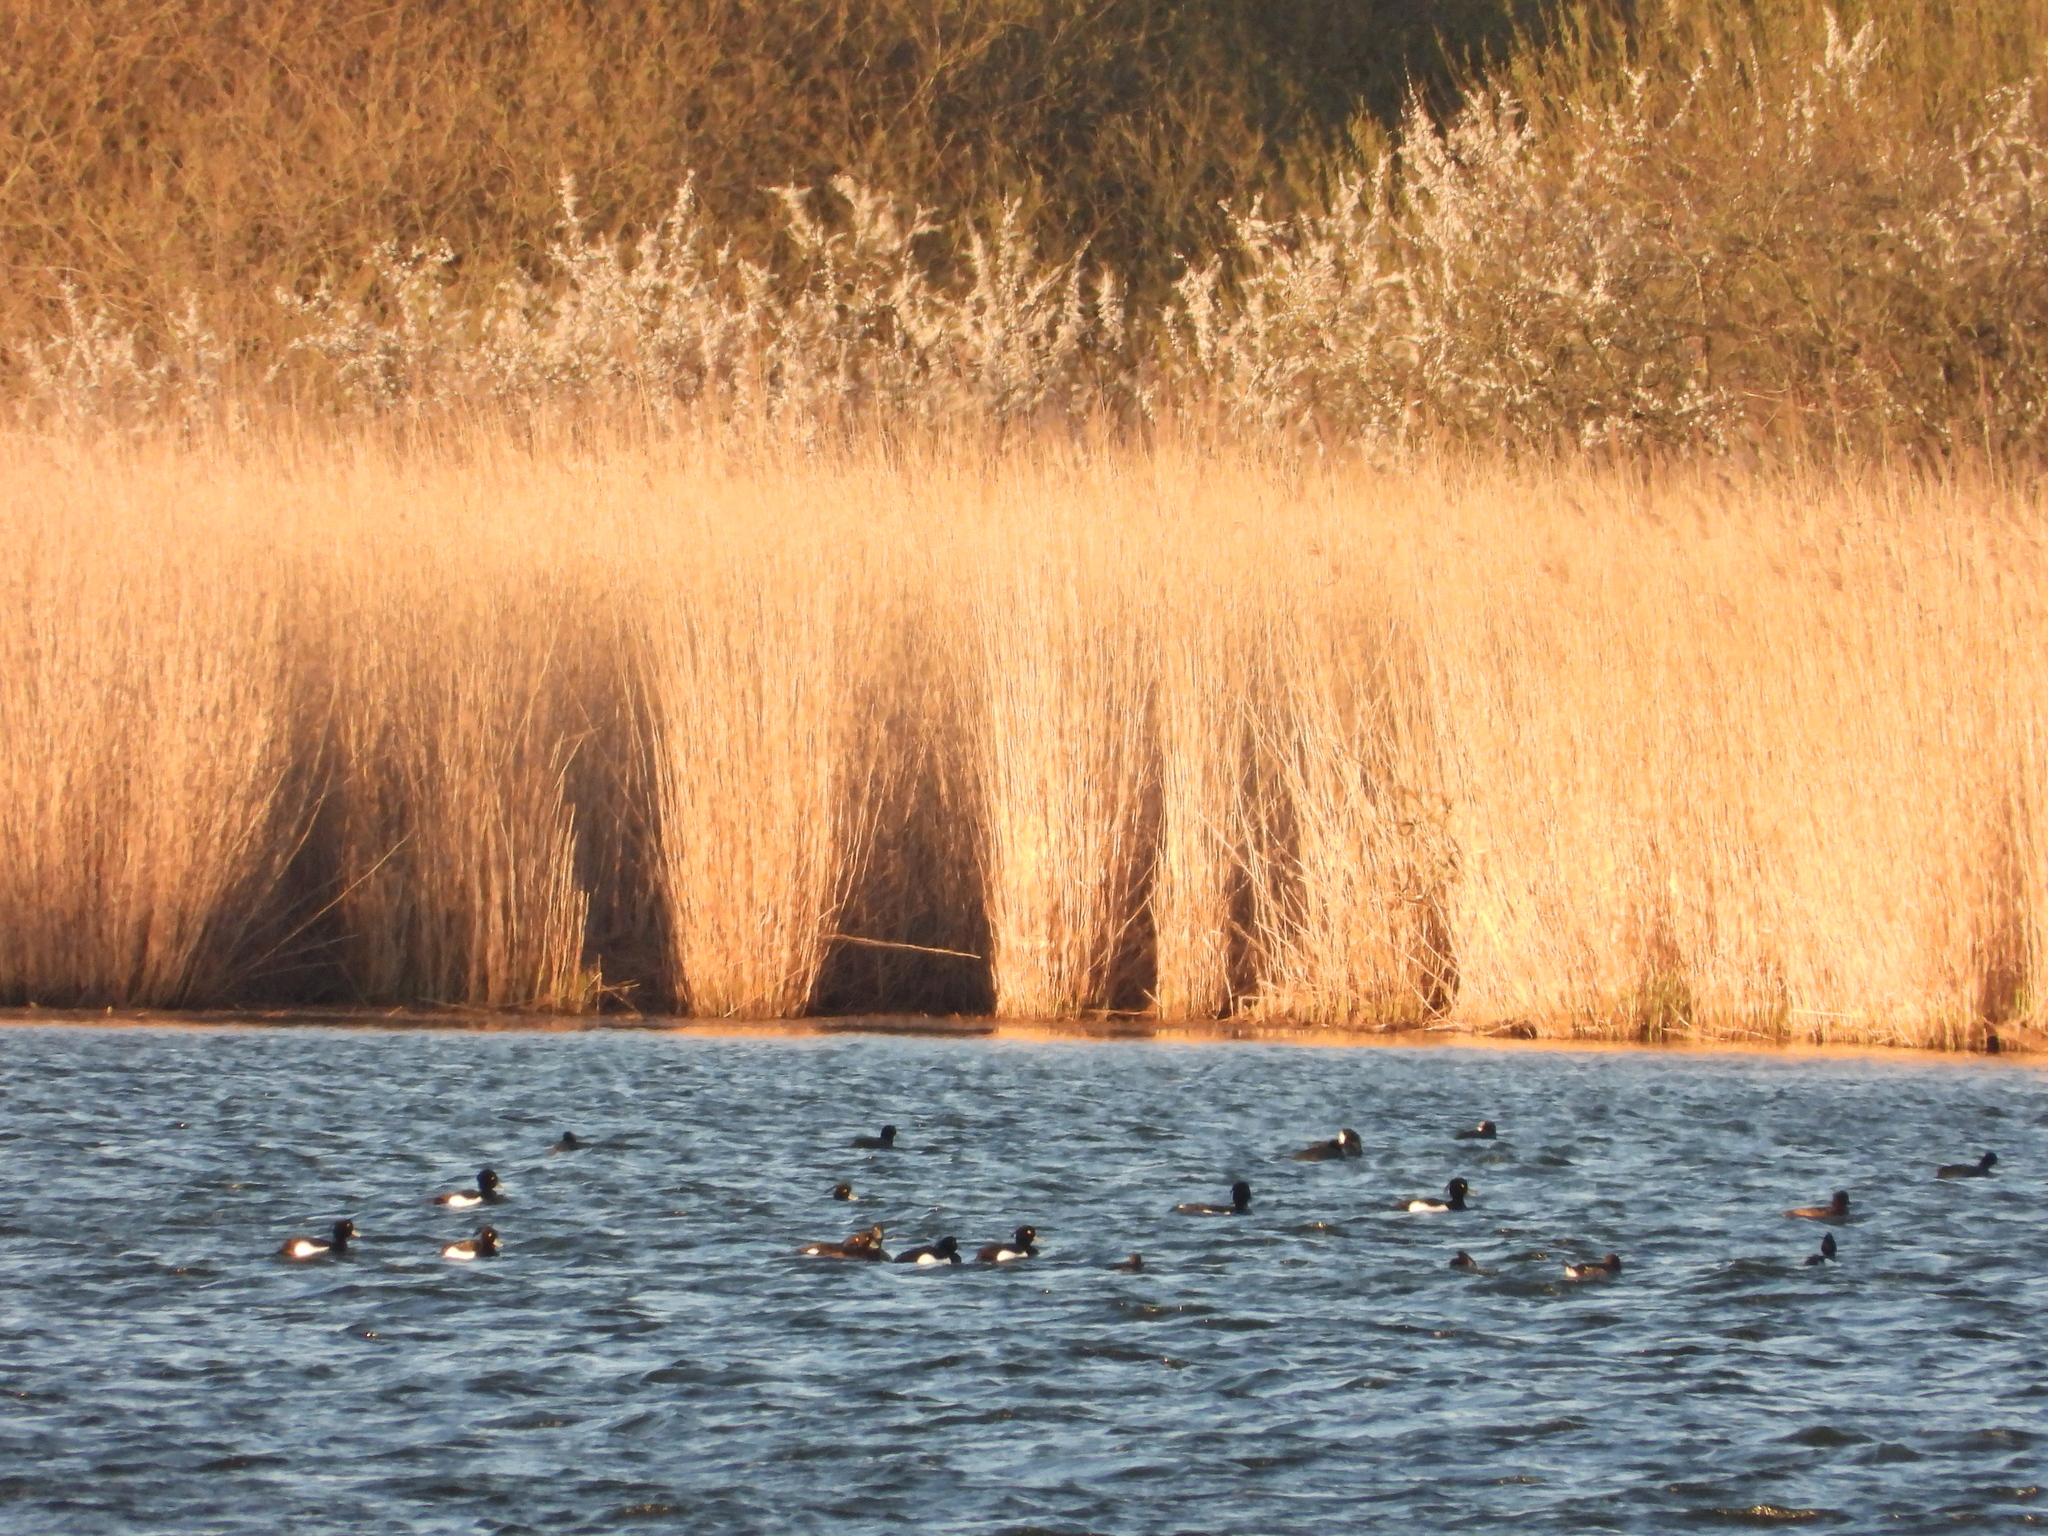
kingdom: Animalia
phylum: Chordata
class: Aves
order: Anseriformes
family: Anatidae
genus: Aythya
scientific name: Aythya fuligula
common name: Tufted duck
